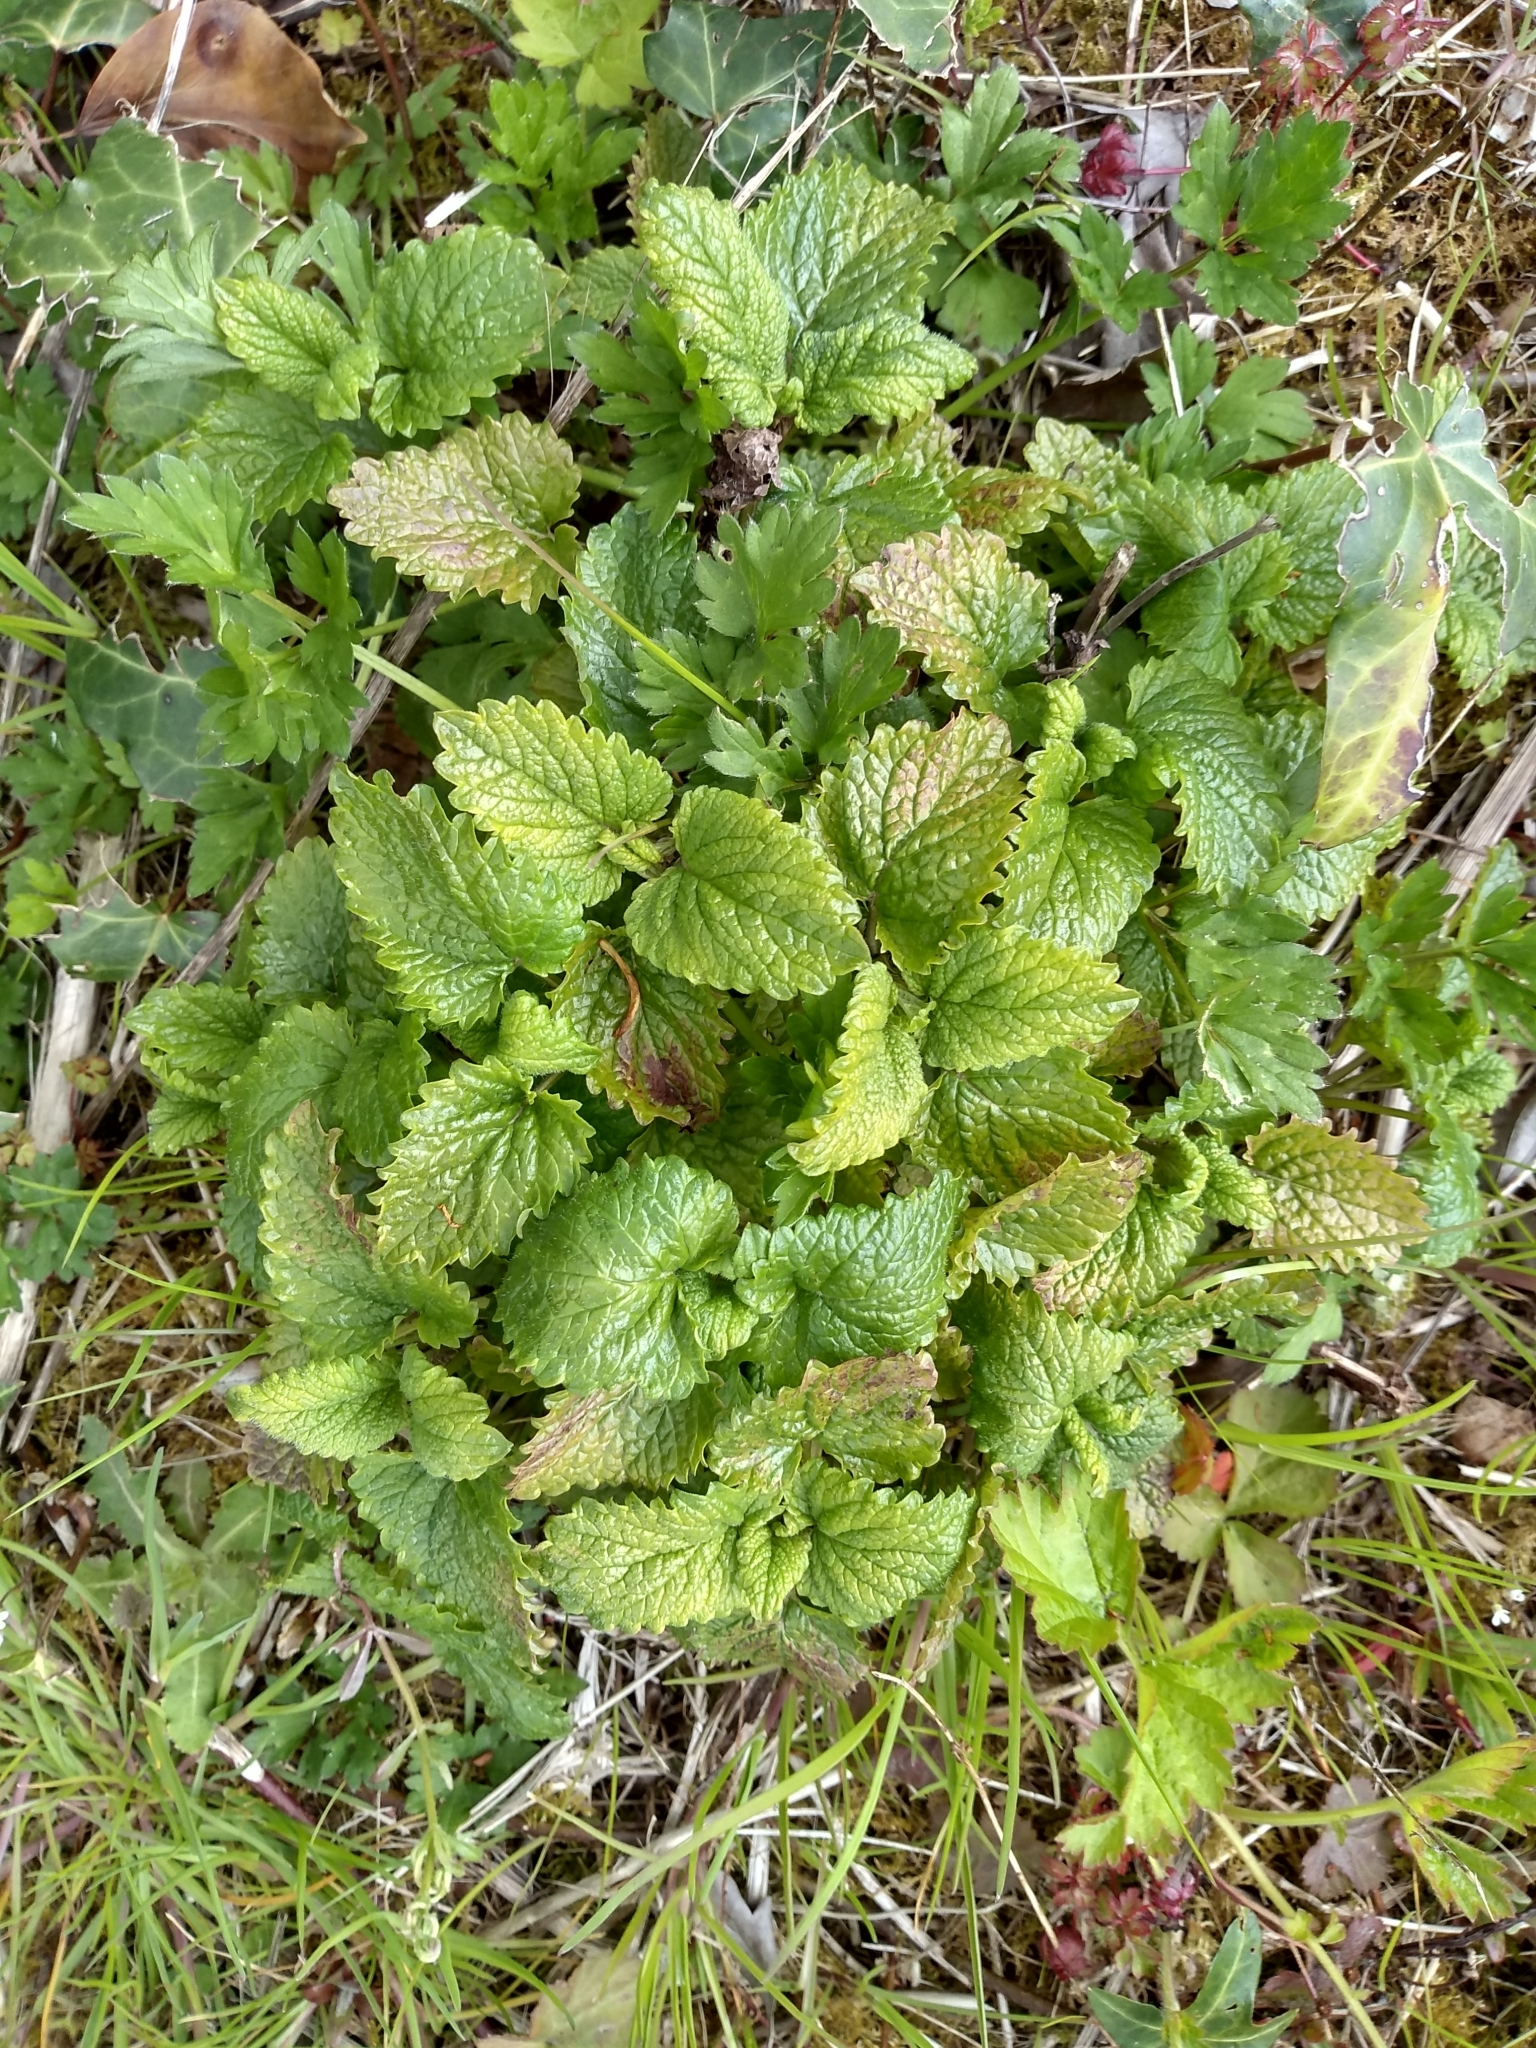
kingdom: Plantae
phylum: Tracheophyta
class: Magnoliopsida
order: Lamiales
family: Lamiaceae
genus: Melissa
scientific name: Melissa officinalis
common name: Balm
